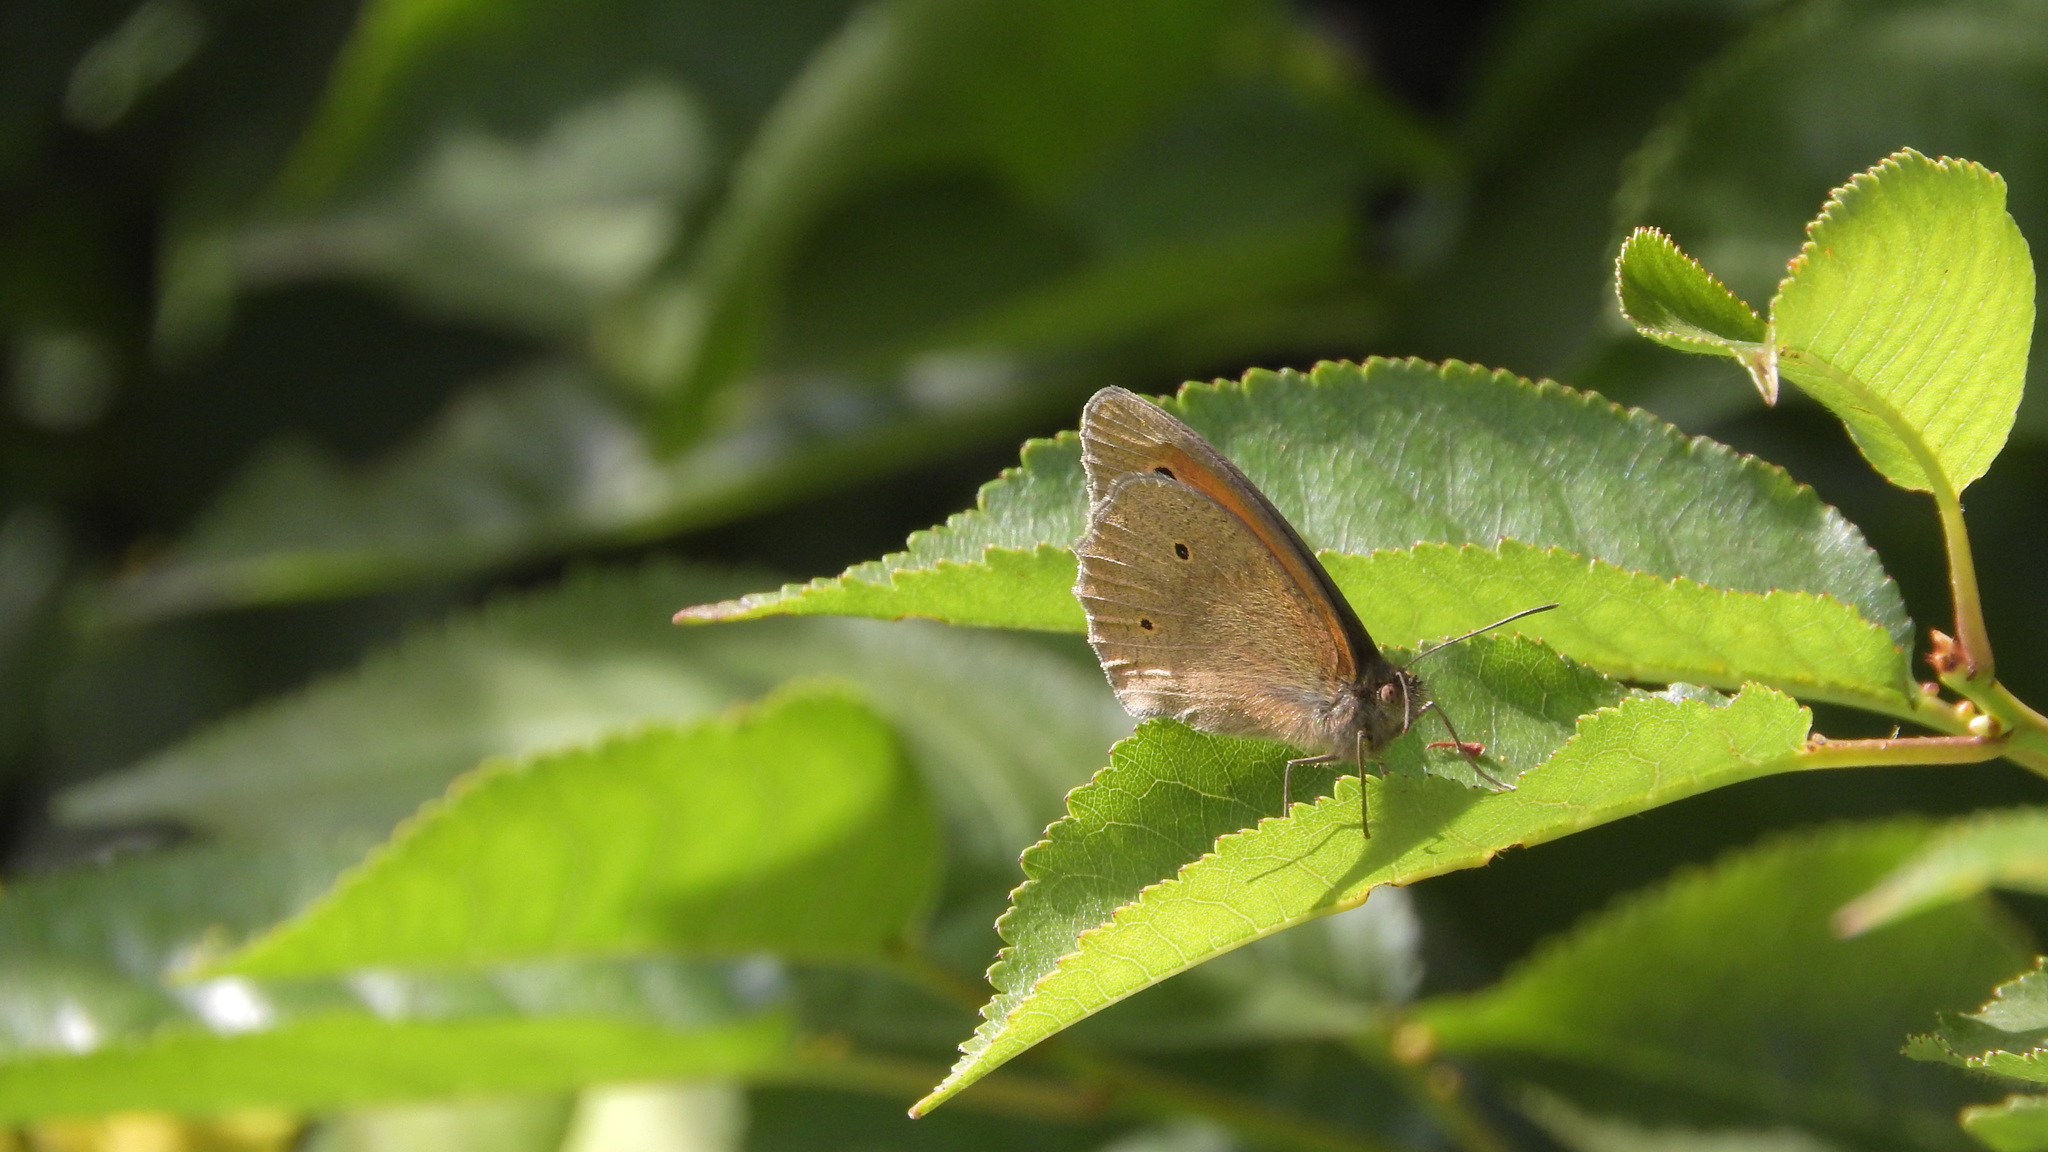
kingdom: Animalia
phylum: Arthropoda
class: Insecta
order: Lepidoptera
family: Nymphalidae
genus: Maniola
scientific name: Maniola jurtina
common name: Meadow brown
